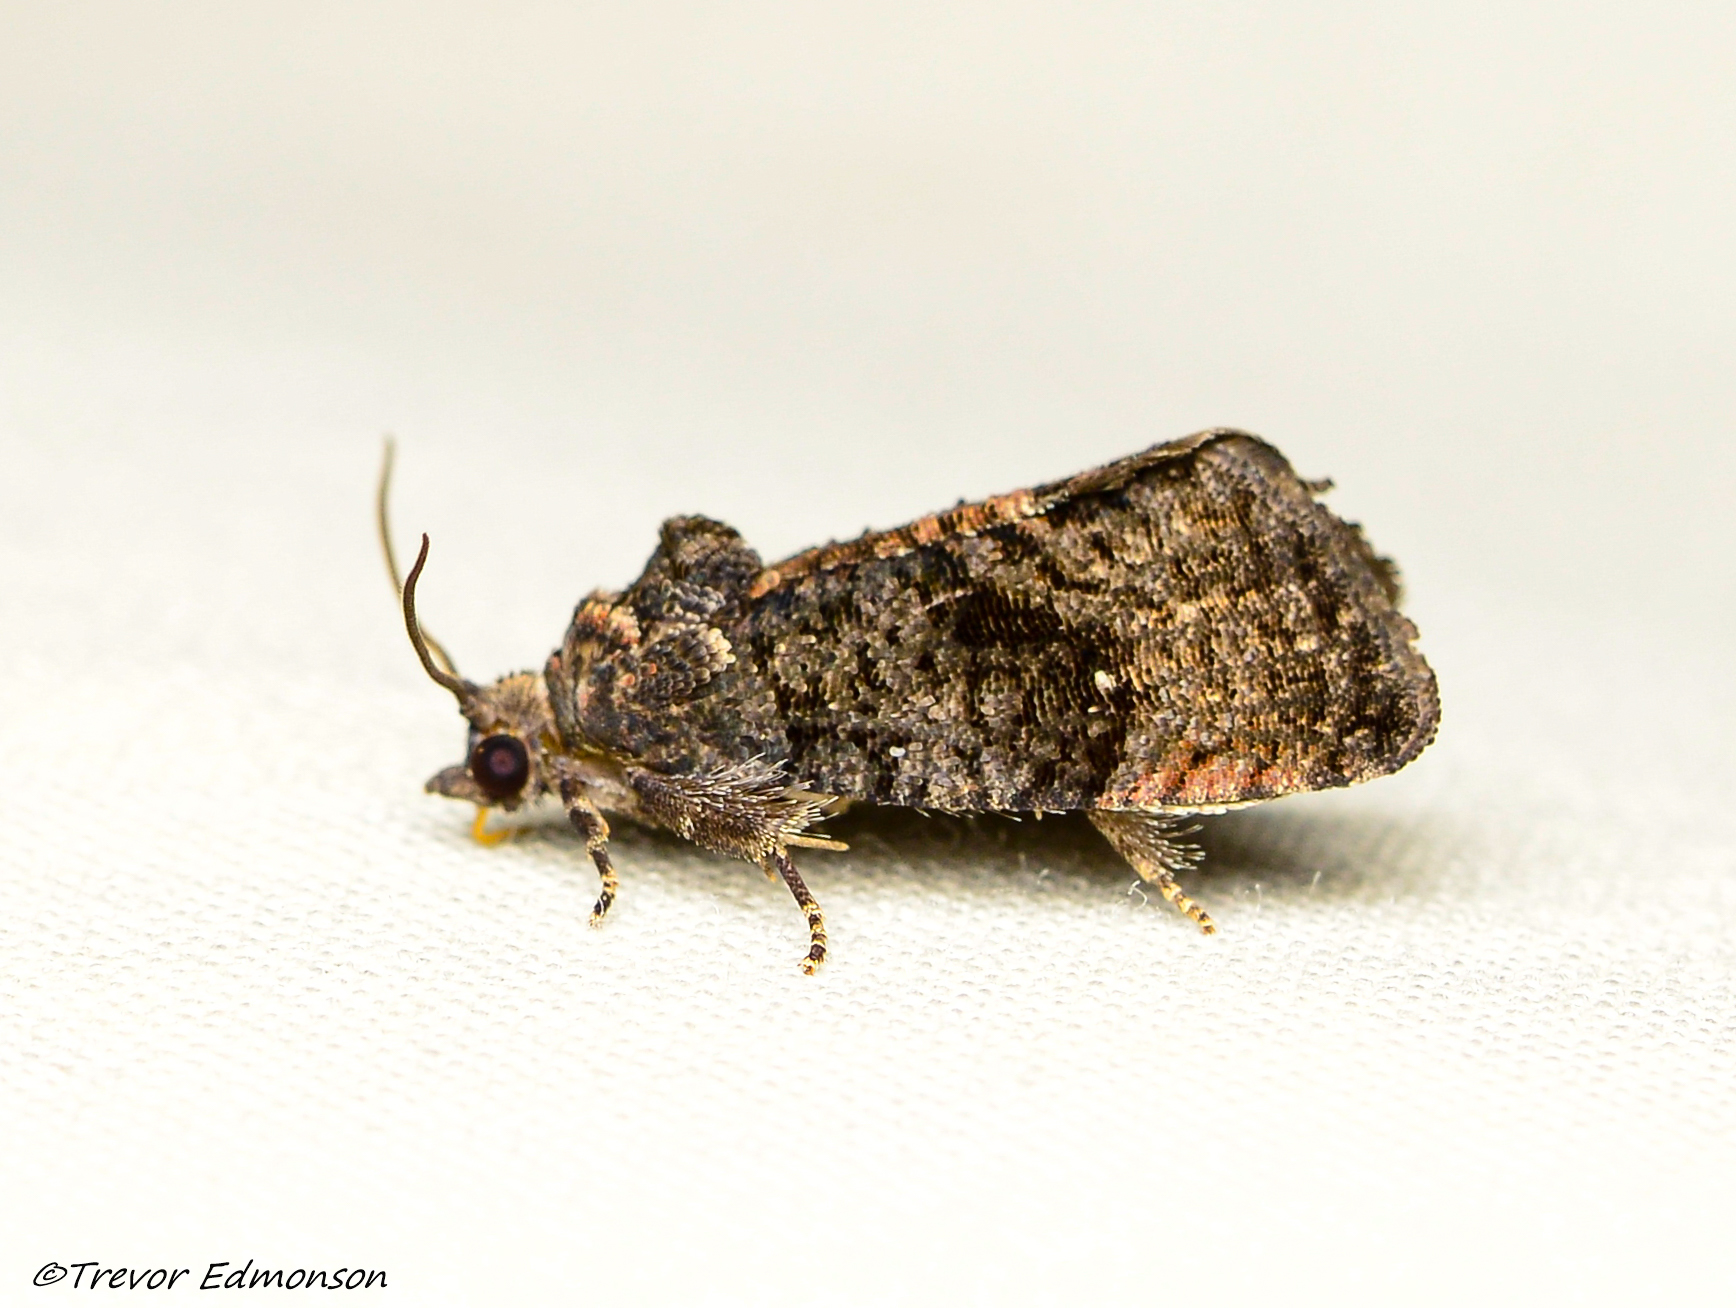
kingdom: Animalia
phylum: Arthropoda
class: Insecta
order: Lepidoptera
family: Tortricidae
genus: Gymnandrosoma
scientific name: Gymnandrosoma punctidiscanum
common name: Dotted ecdytolopha moth
